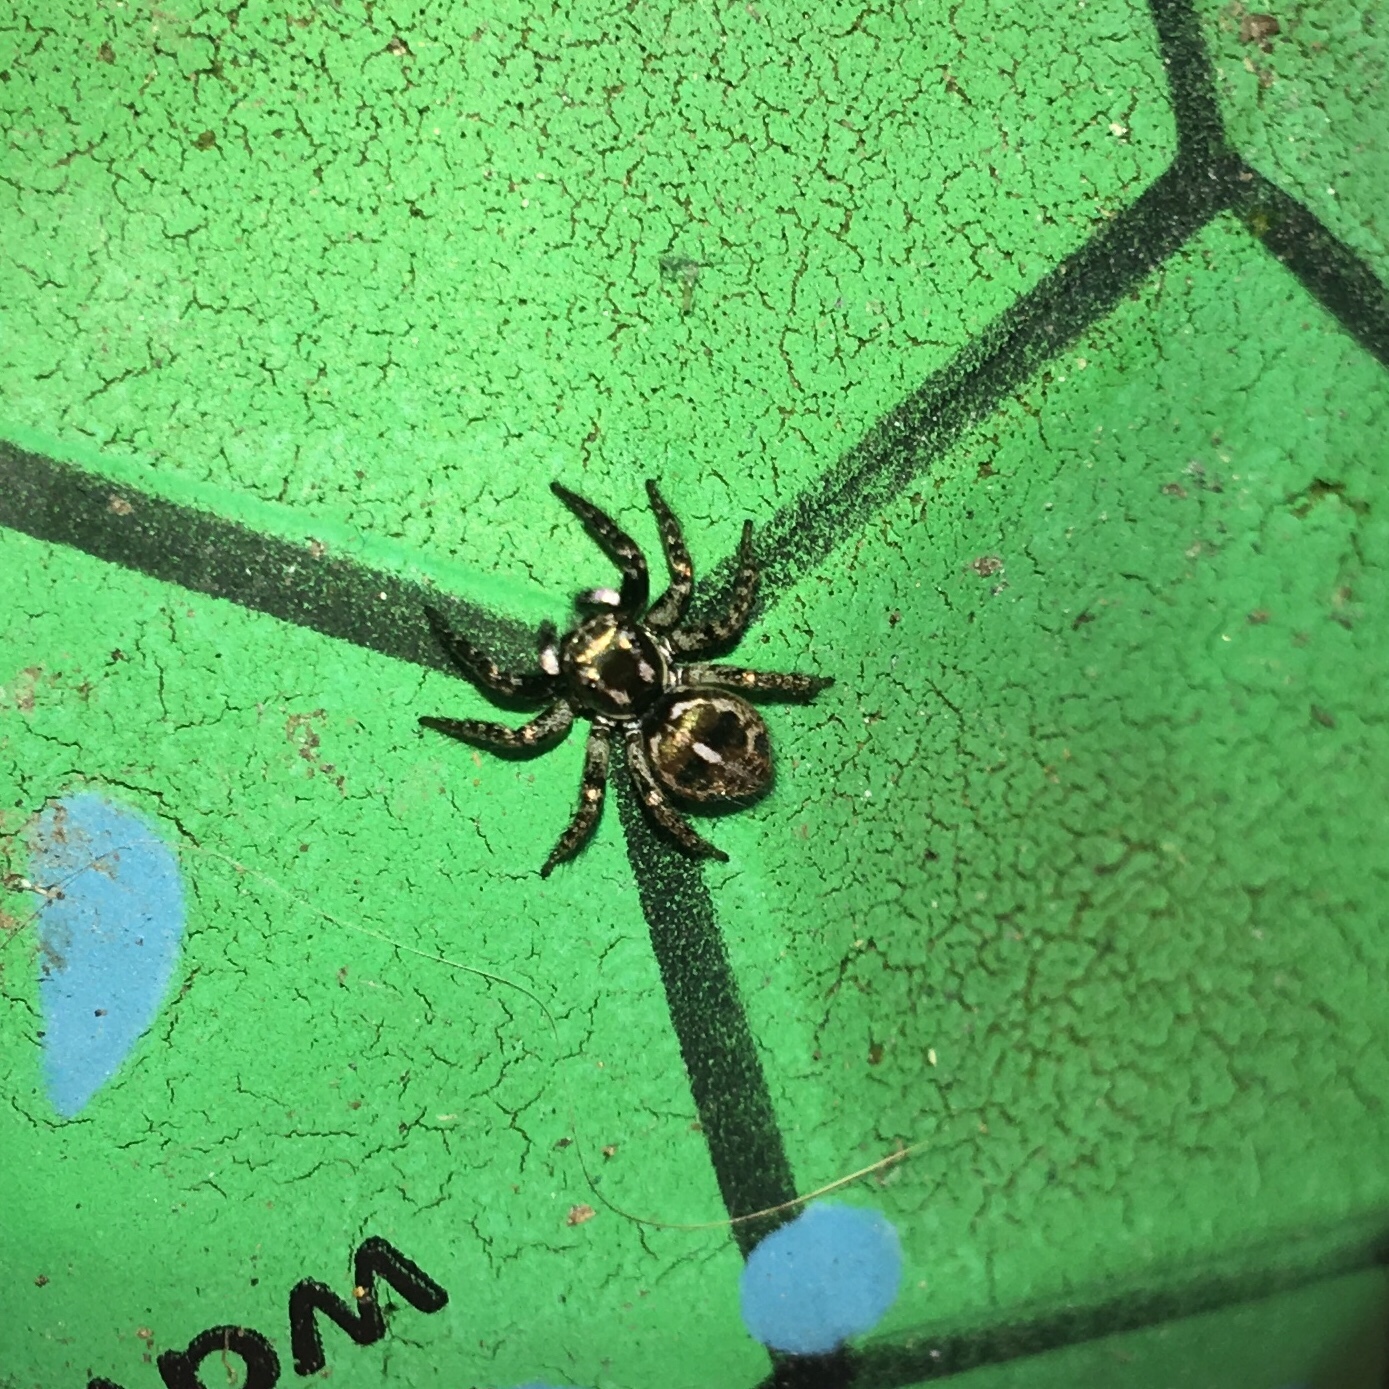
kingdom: Animalia
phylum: Arthropoda
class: Arachnida
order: Araneae
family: Salticidae
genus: Anasaitis
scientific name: Anasaitis canosa
